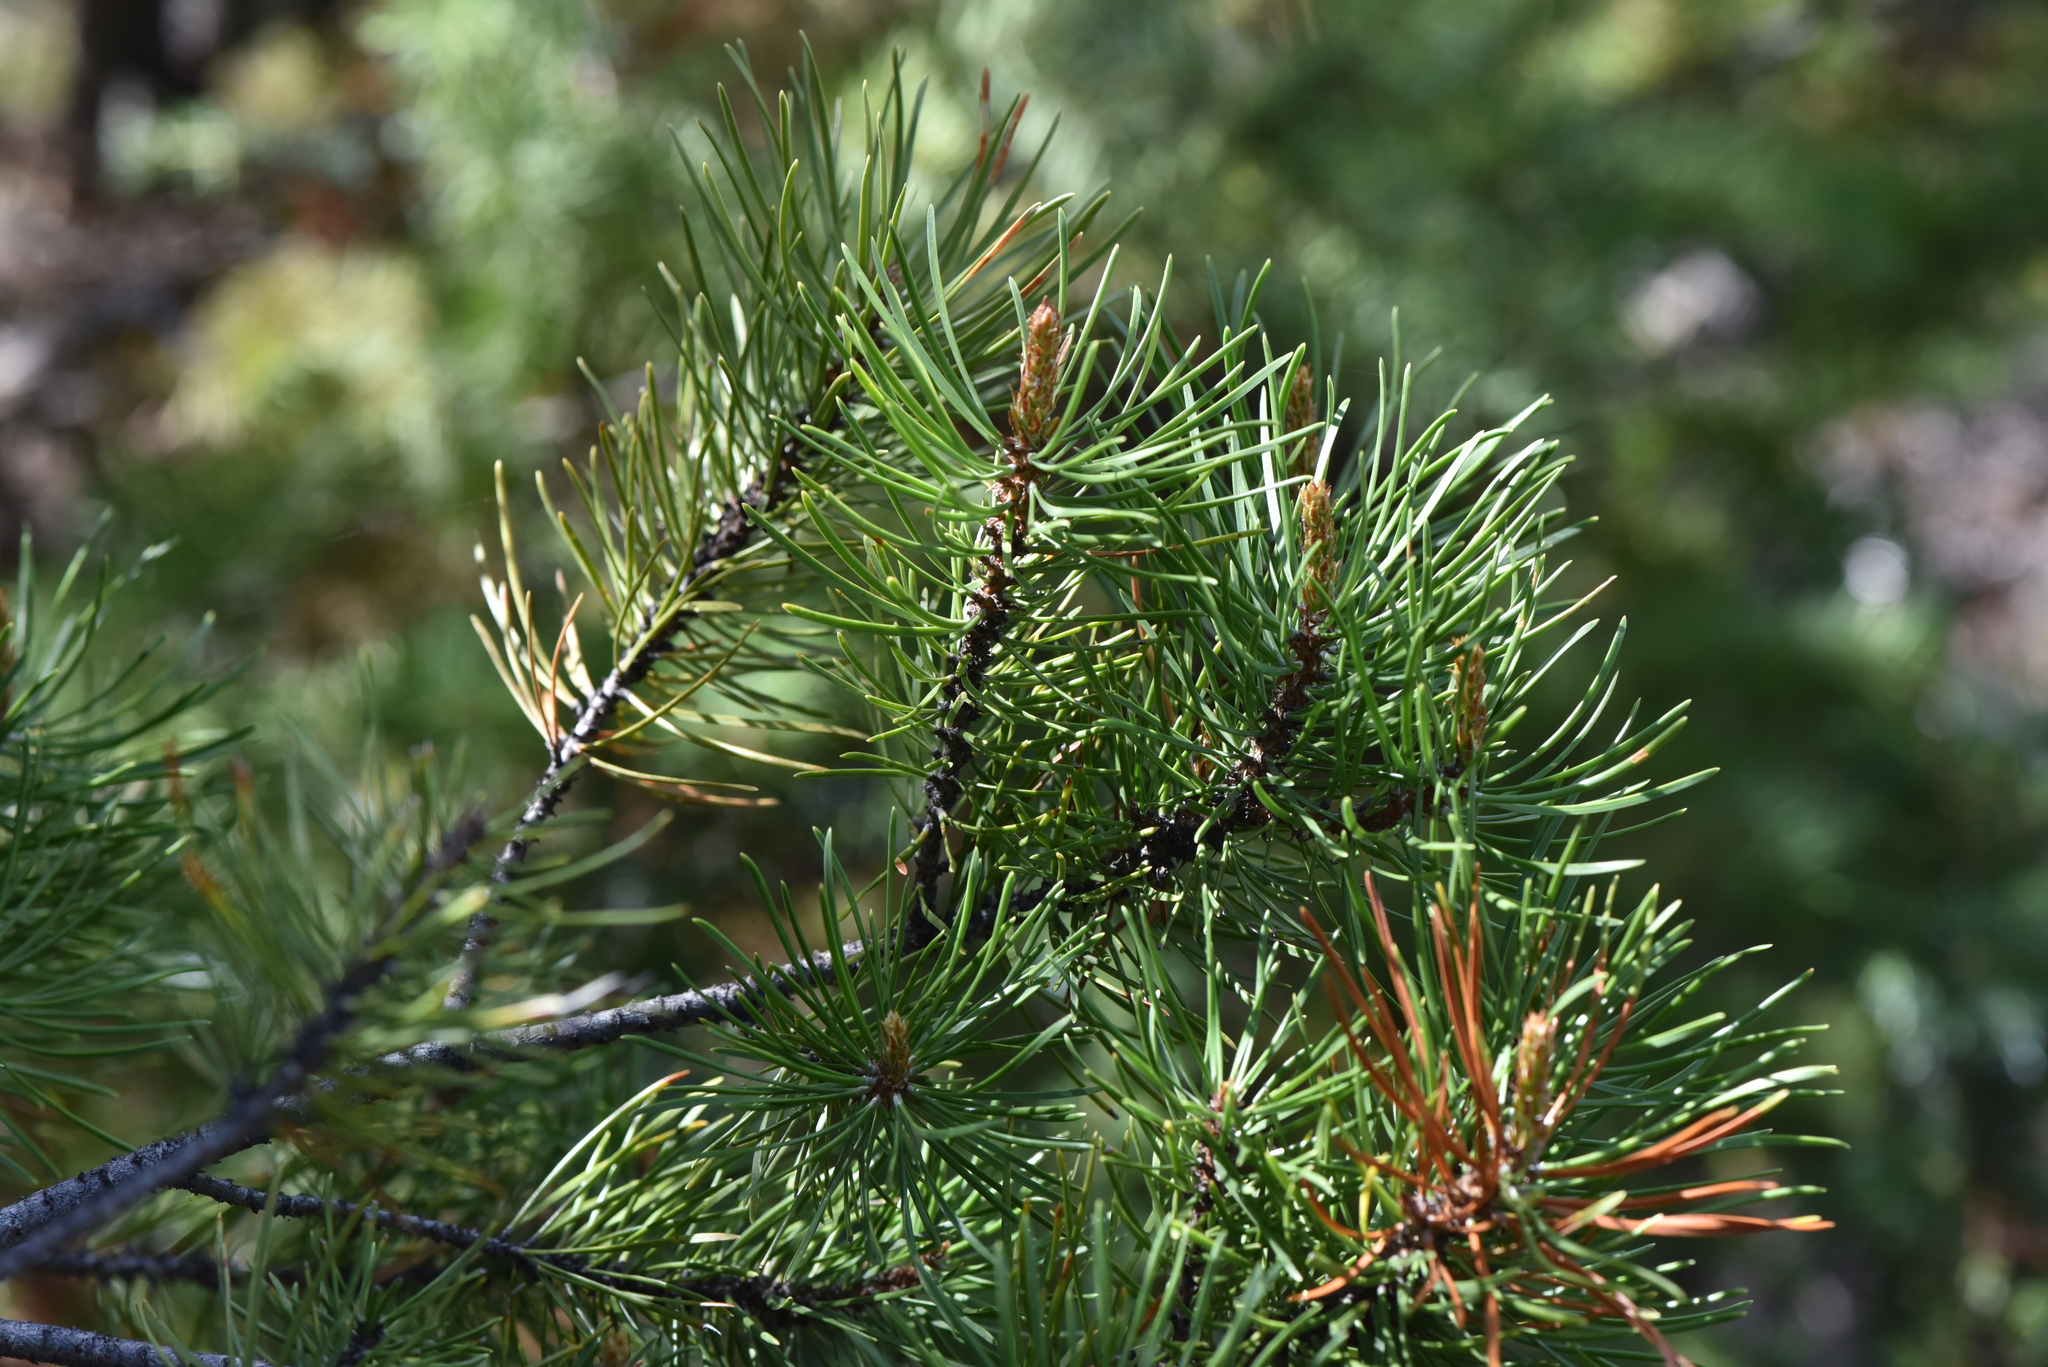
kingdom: Plantae
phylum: Tracheophyta
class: Pinopsida
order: Pinales
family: Pinaceae
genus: Pinus
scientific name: Pinus contorta
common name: Lodgepole pine
